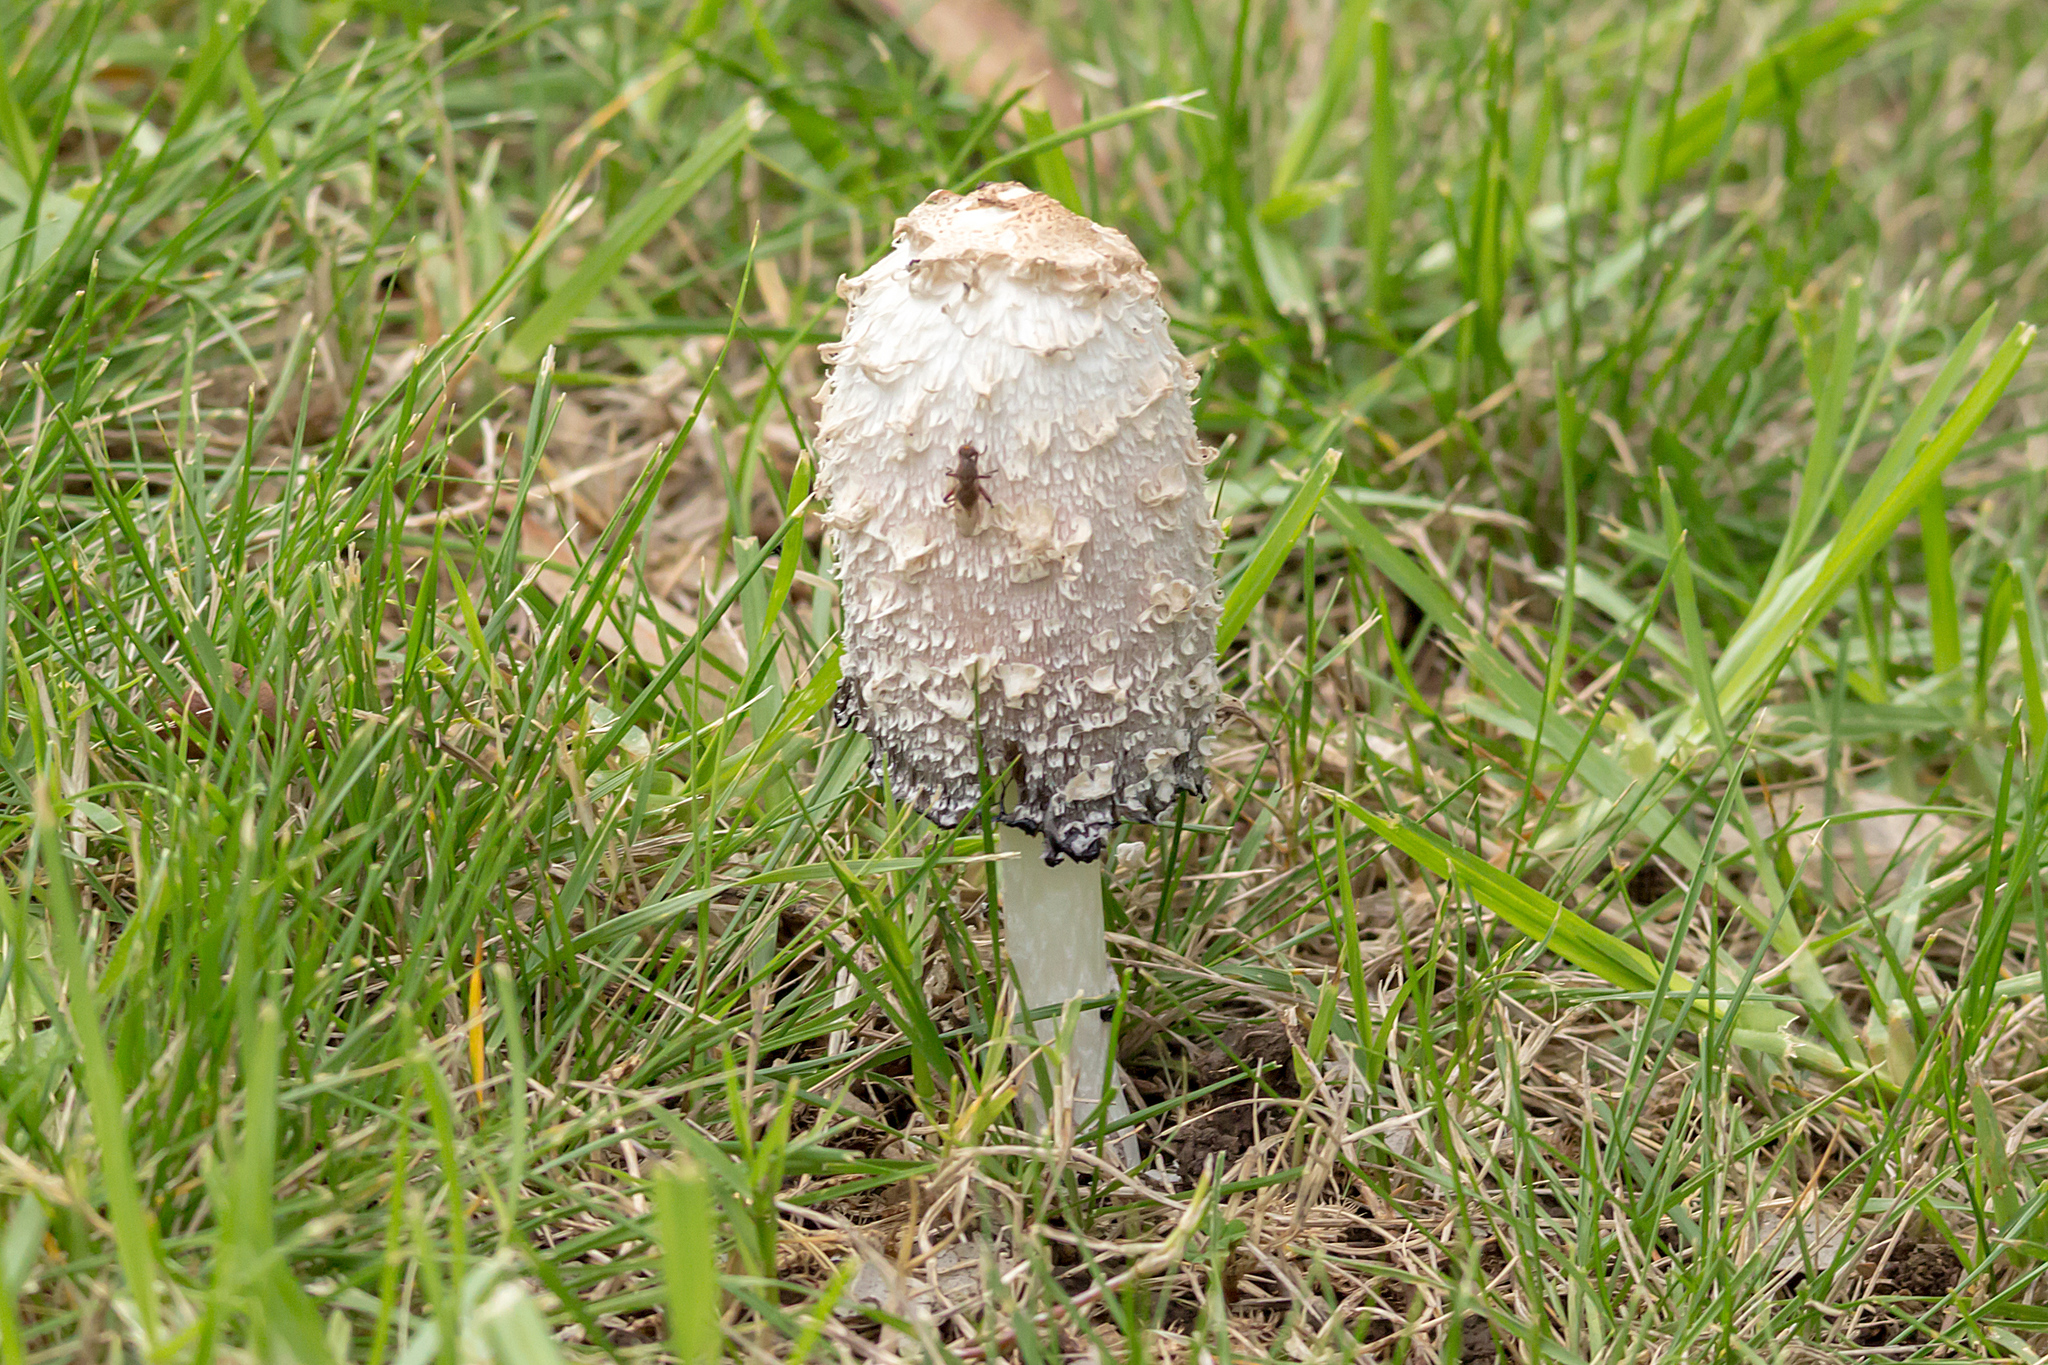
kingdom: Fungi
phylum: Basidiomycota
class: Agaricomycetes
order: Agaricales
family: Agaricaceae
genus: Coprinus
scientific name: Coprinus comatus
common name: Lawyer's wig
